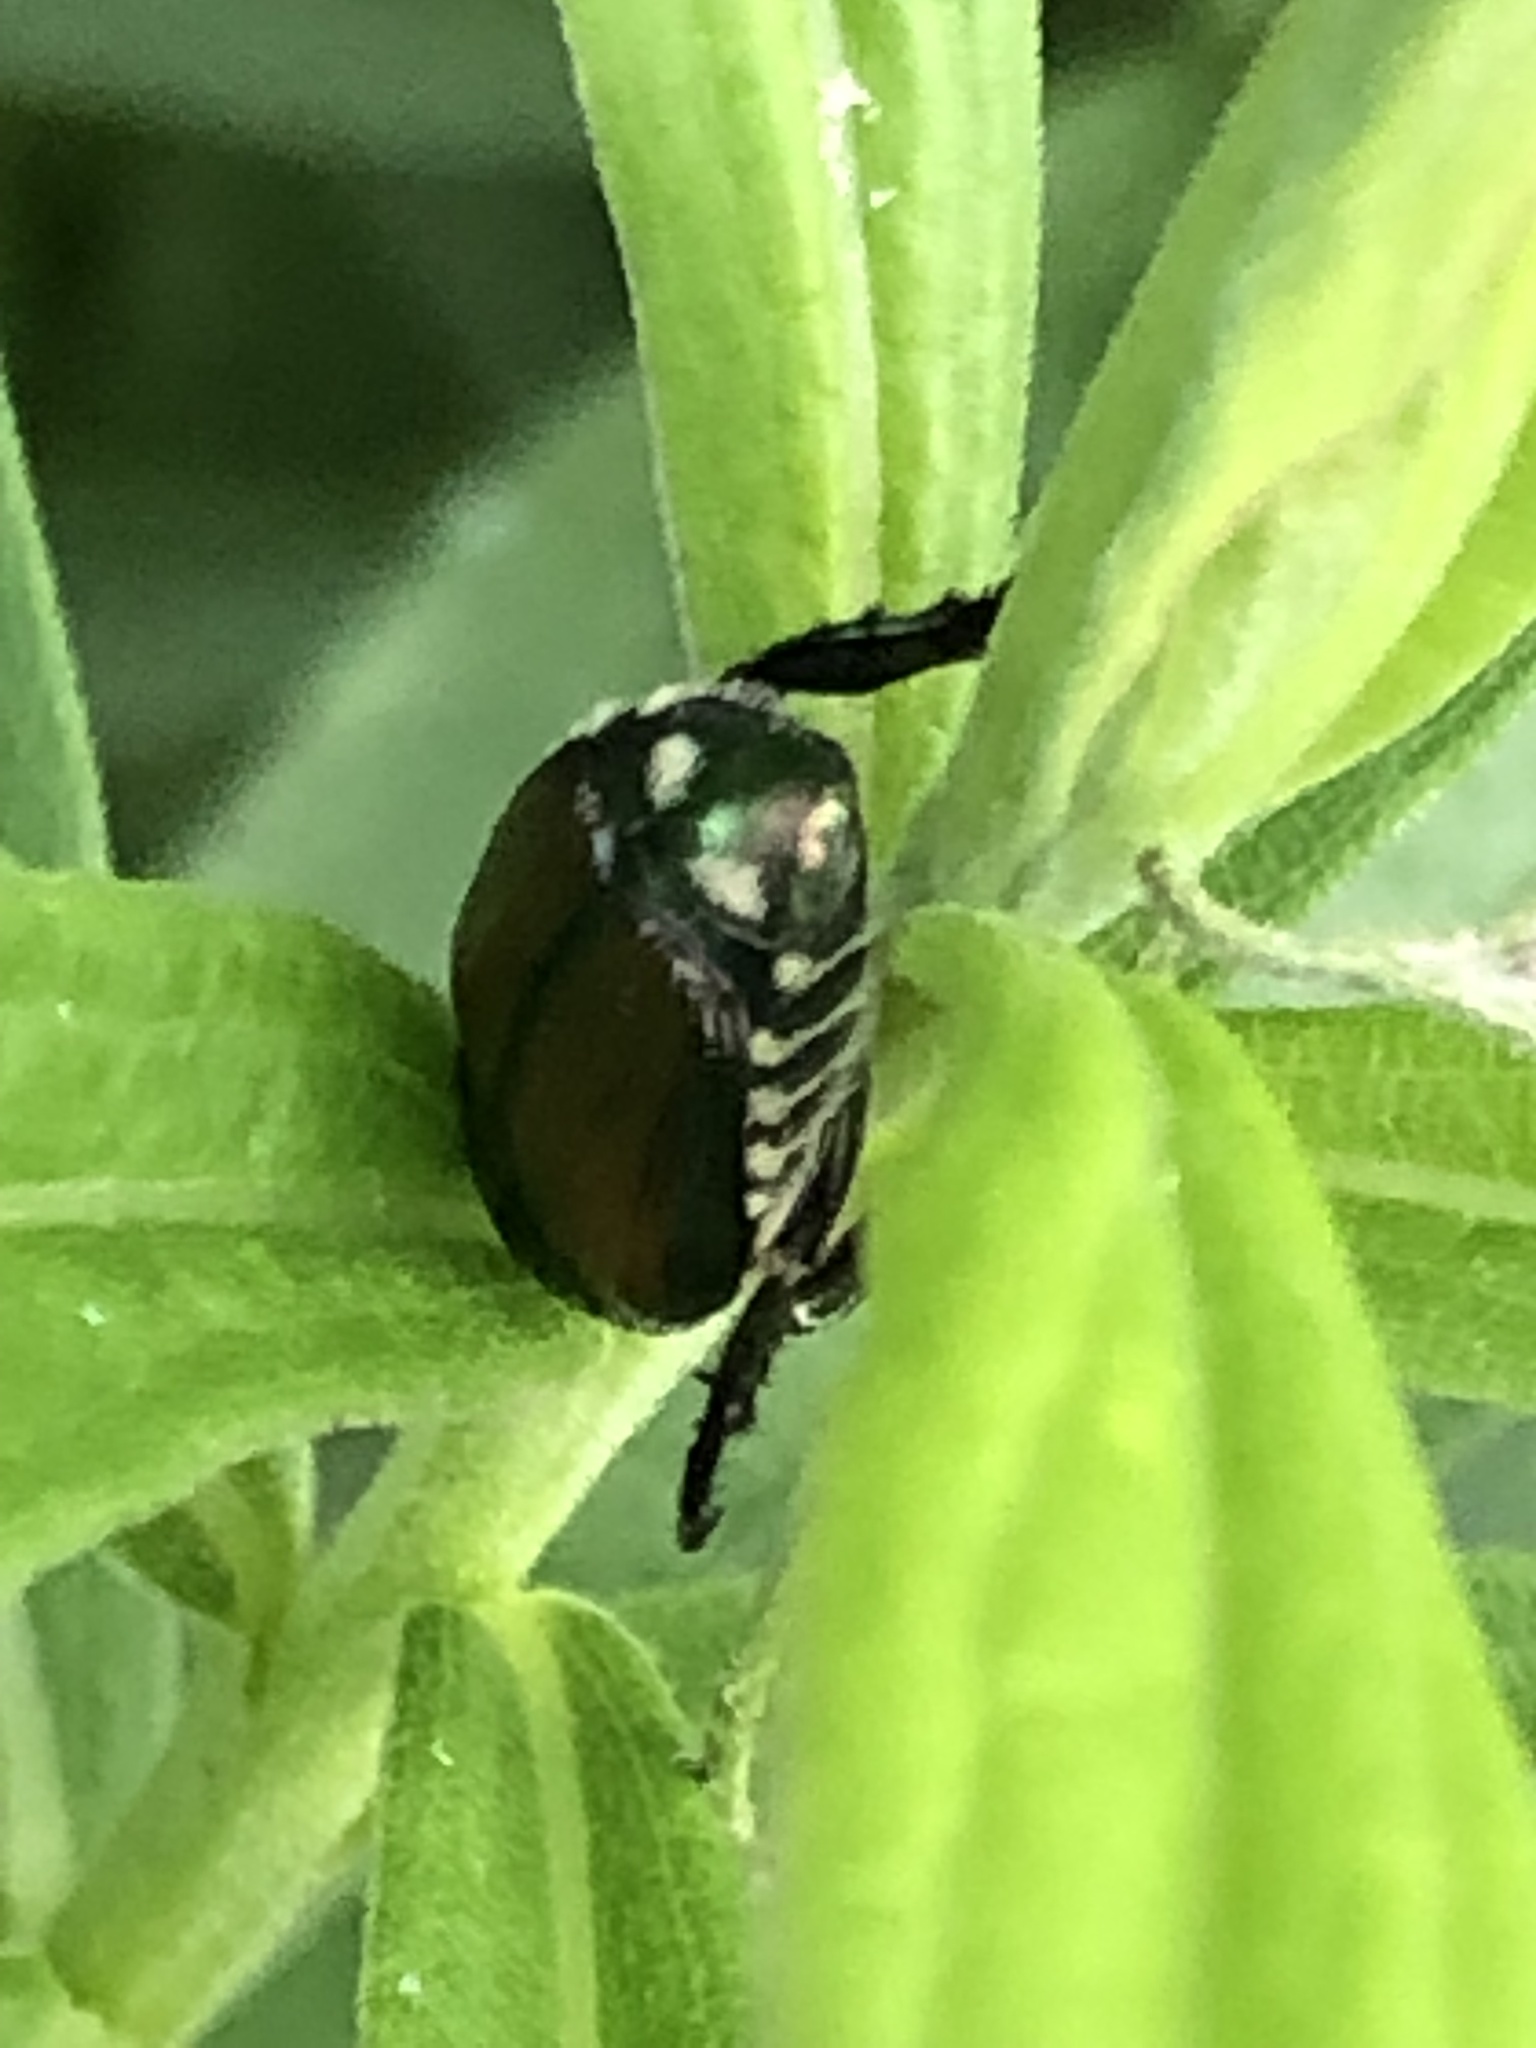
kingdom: Animalia
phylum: Arthropoda
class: Insecta
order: Coleoptera
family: Scarabaeidae
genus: Popillia
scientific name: Popillia japonica
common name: Japanese beetle
